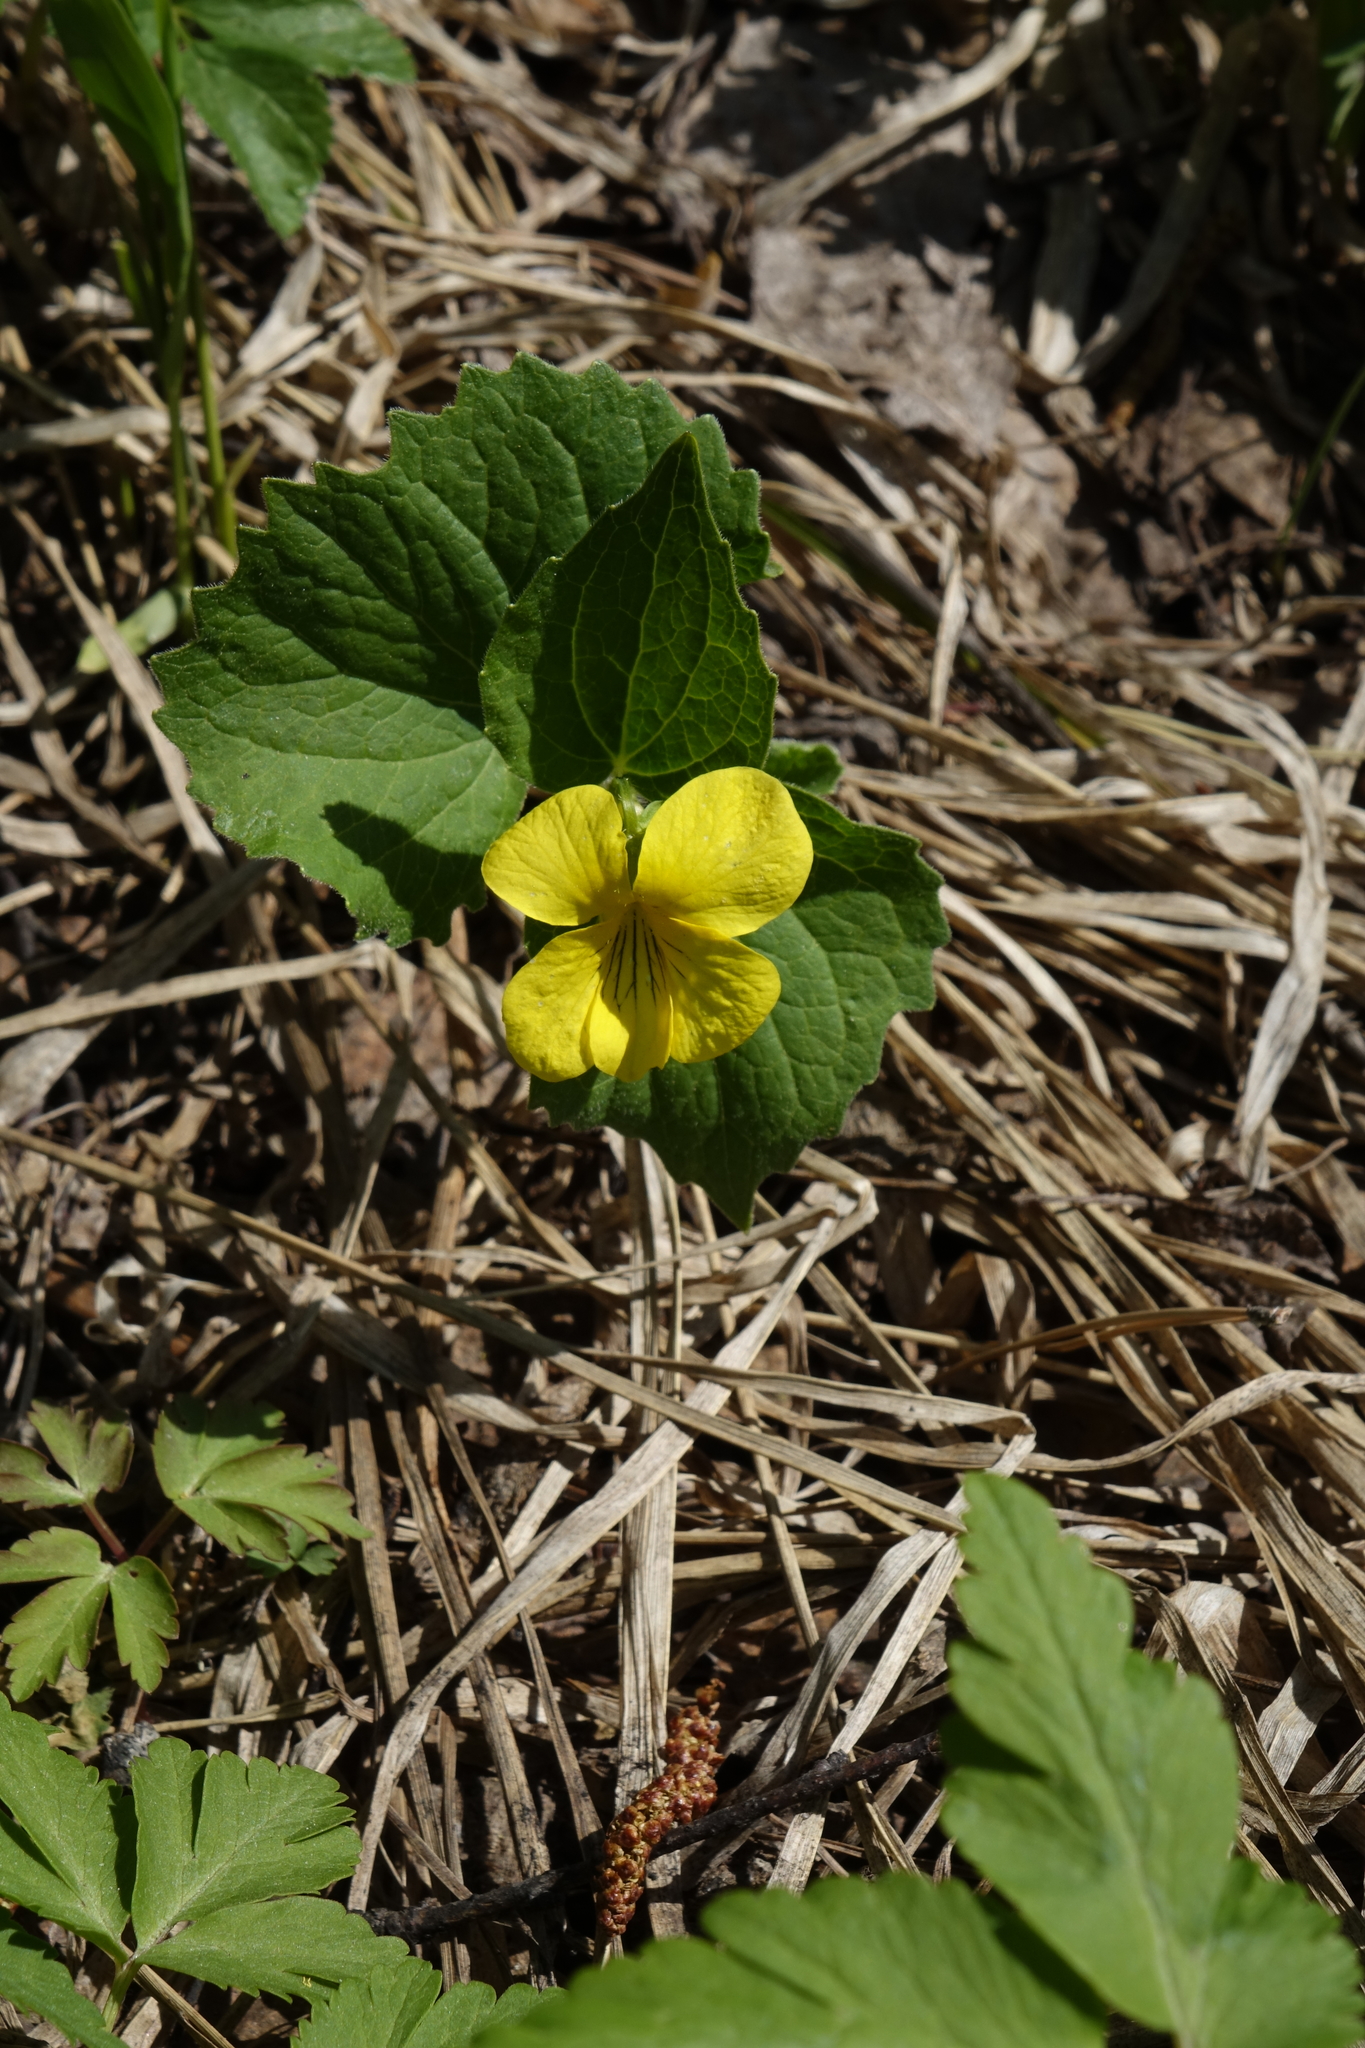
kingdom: Plantae
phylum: Tracheophyta
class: Magnoliopsida
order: Malpighiales
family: Violaceae
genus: Viola
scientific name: Viola uniflora
